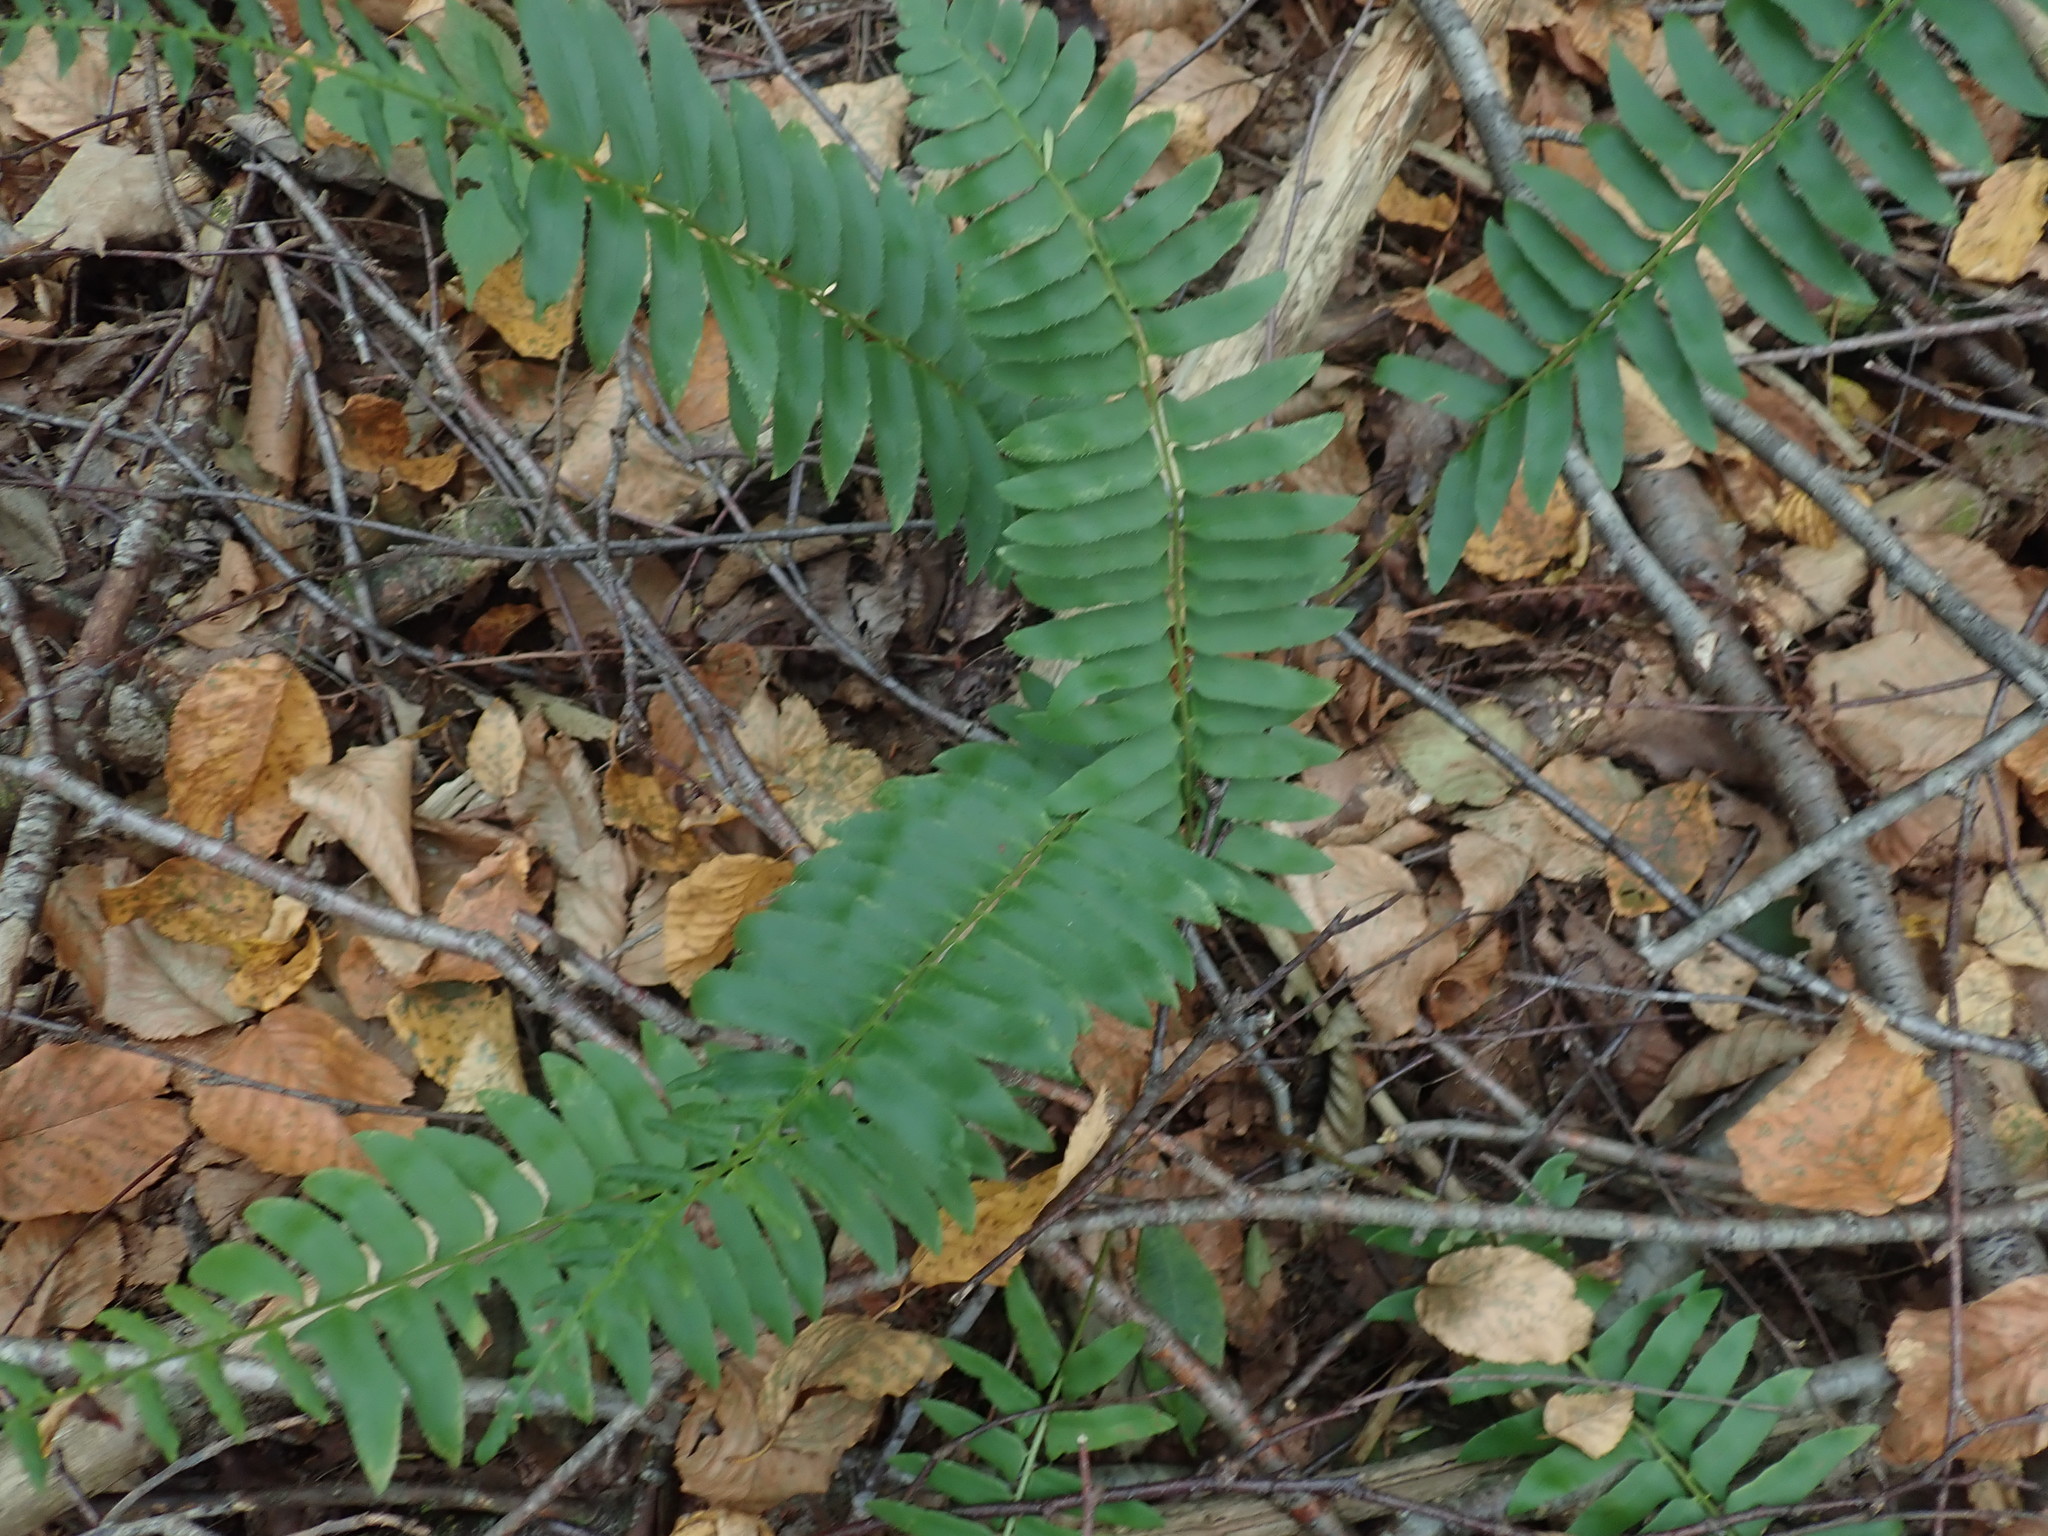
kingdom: Plantae
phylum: Tracheophyta
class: Polypodiopsida
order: Polypodiales
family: Dryopteridaceae
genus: Polystichum
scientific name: Polystichum acrostichoides
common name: Christmas fern
